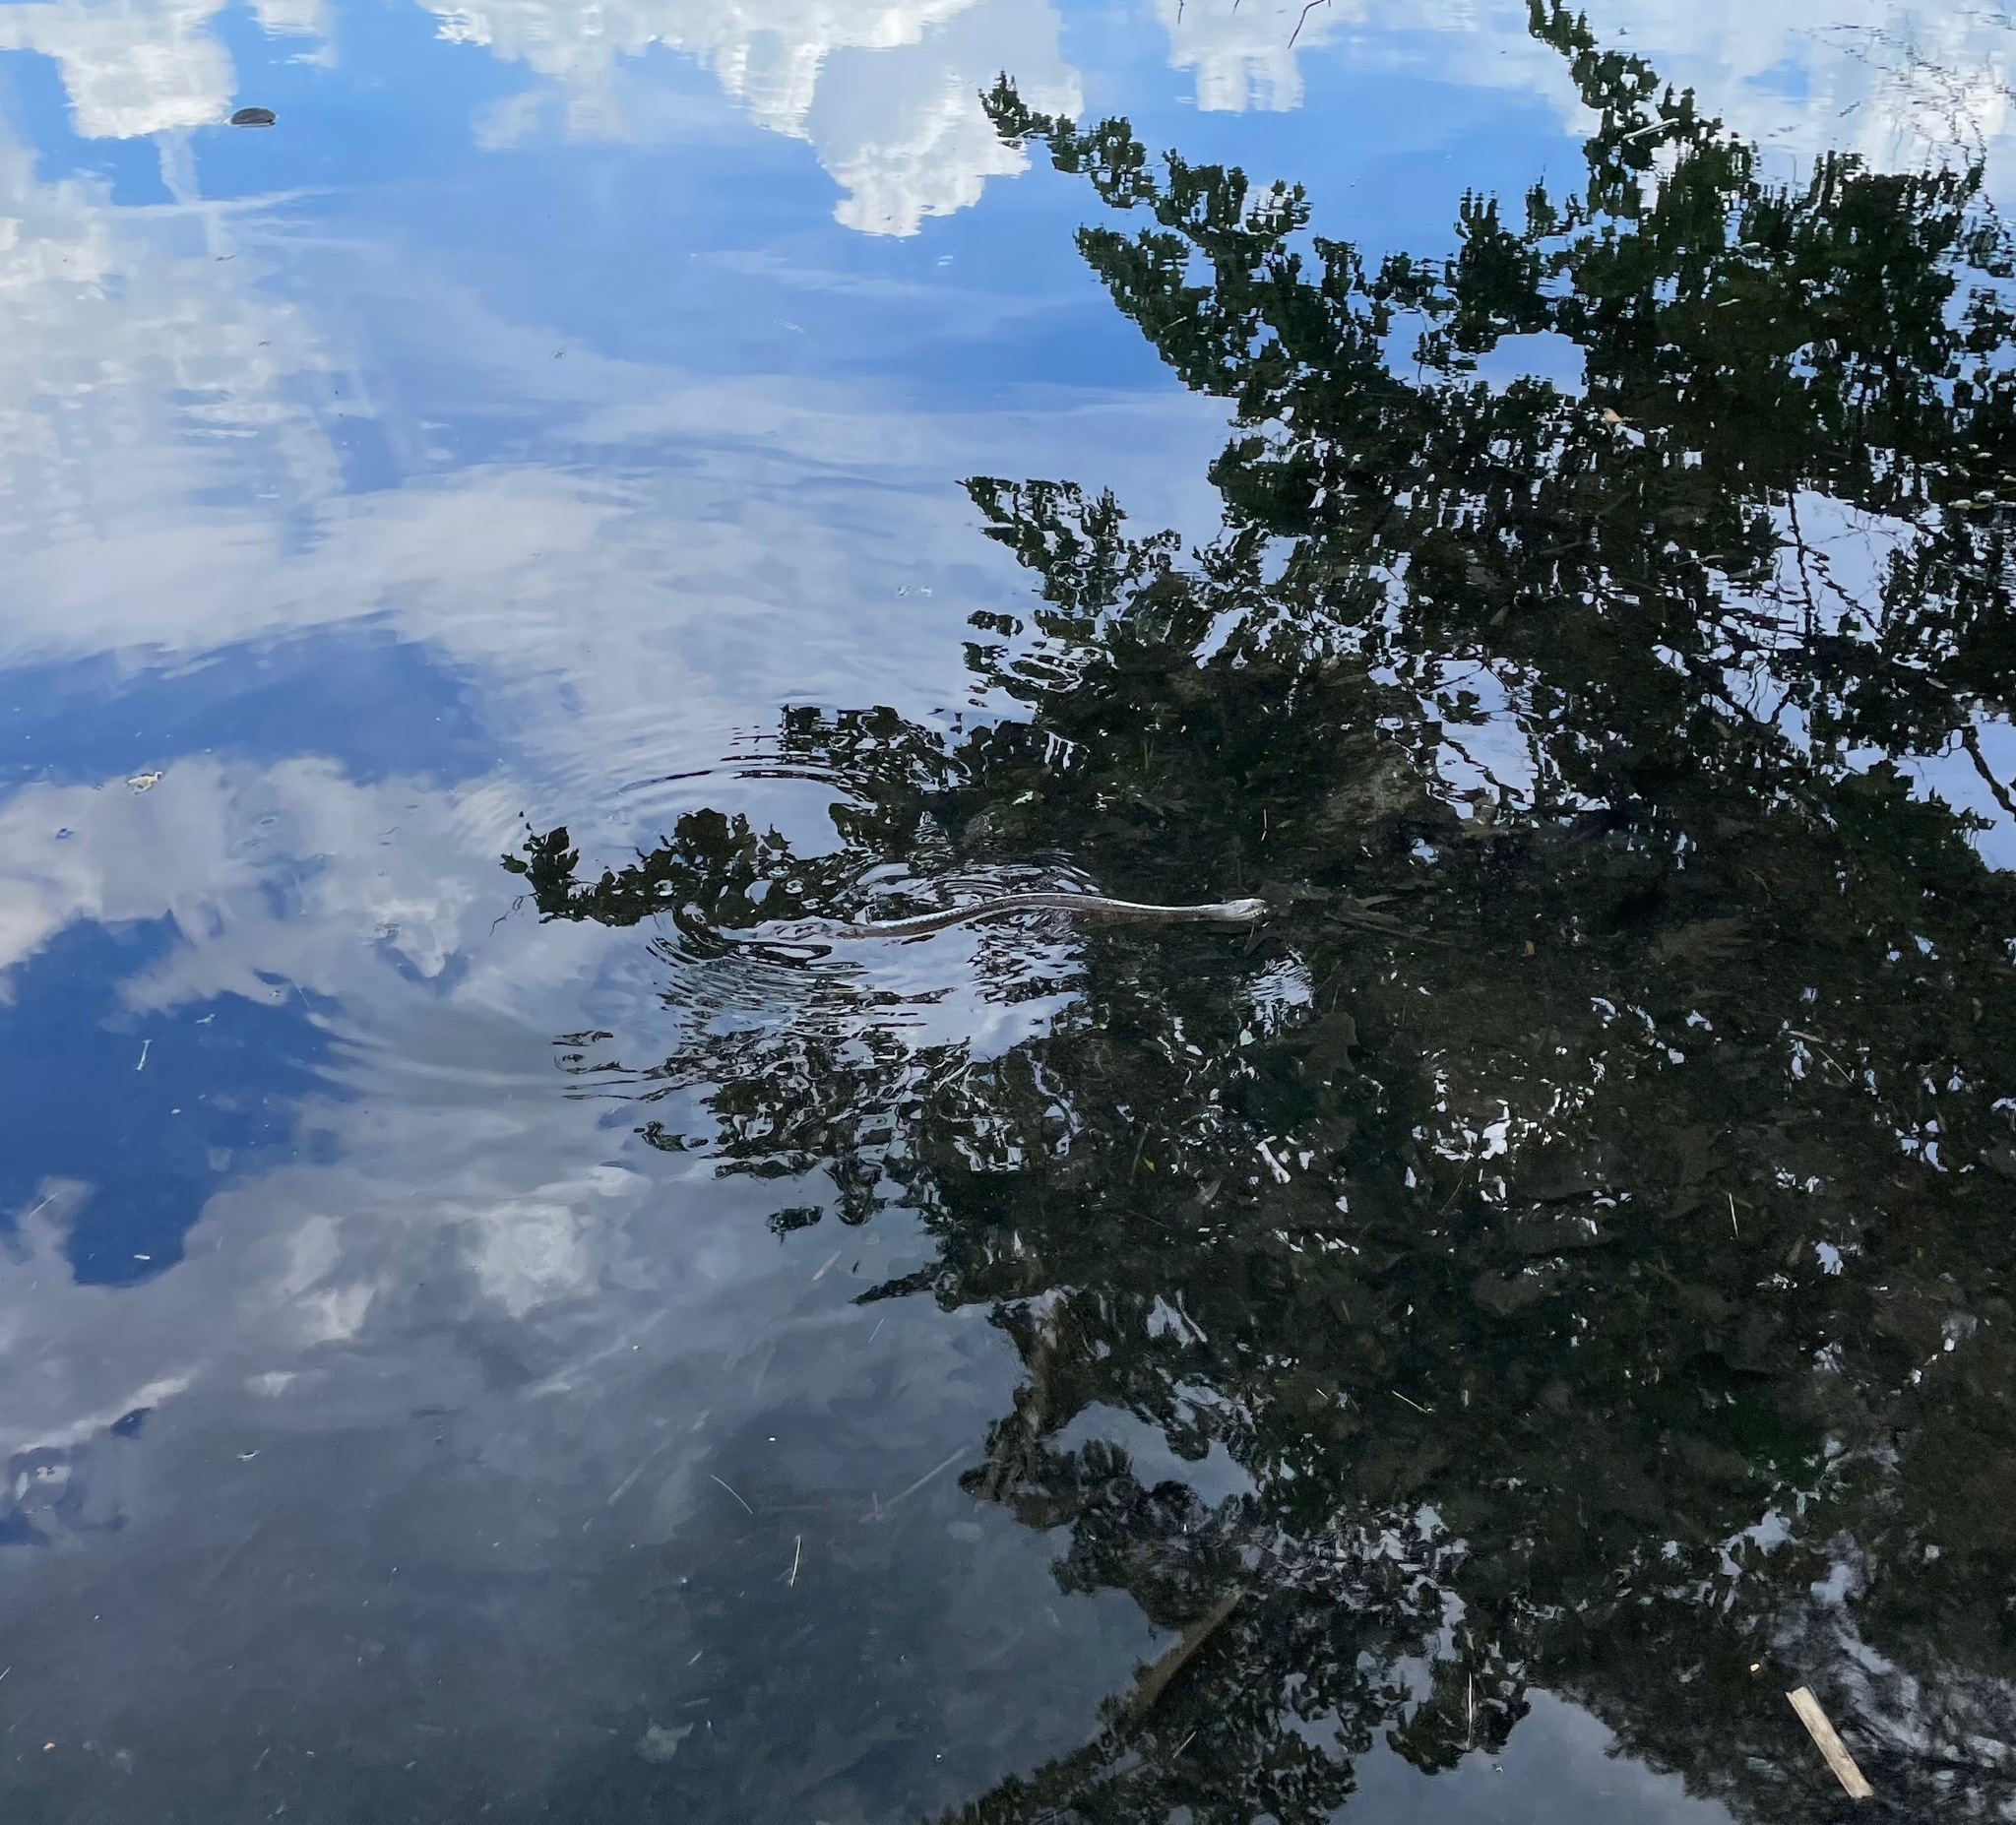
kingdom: Animalia
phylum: Chordata
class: Squamata
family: Colubridae
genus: Nerodia
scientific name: Nerodia sipedon
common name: Northern water snake
